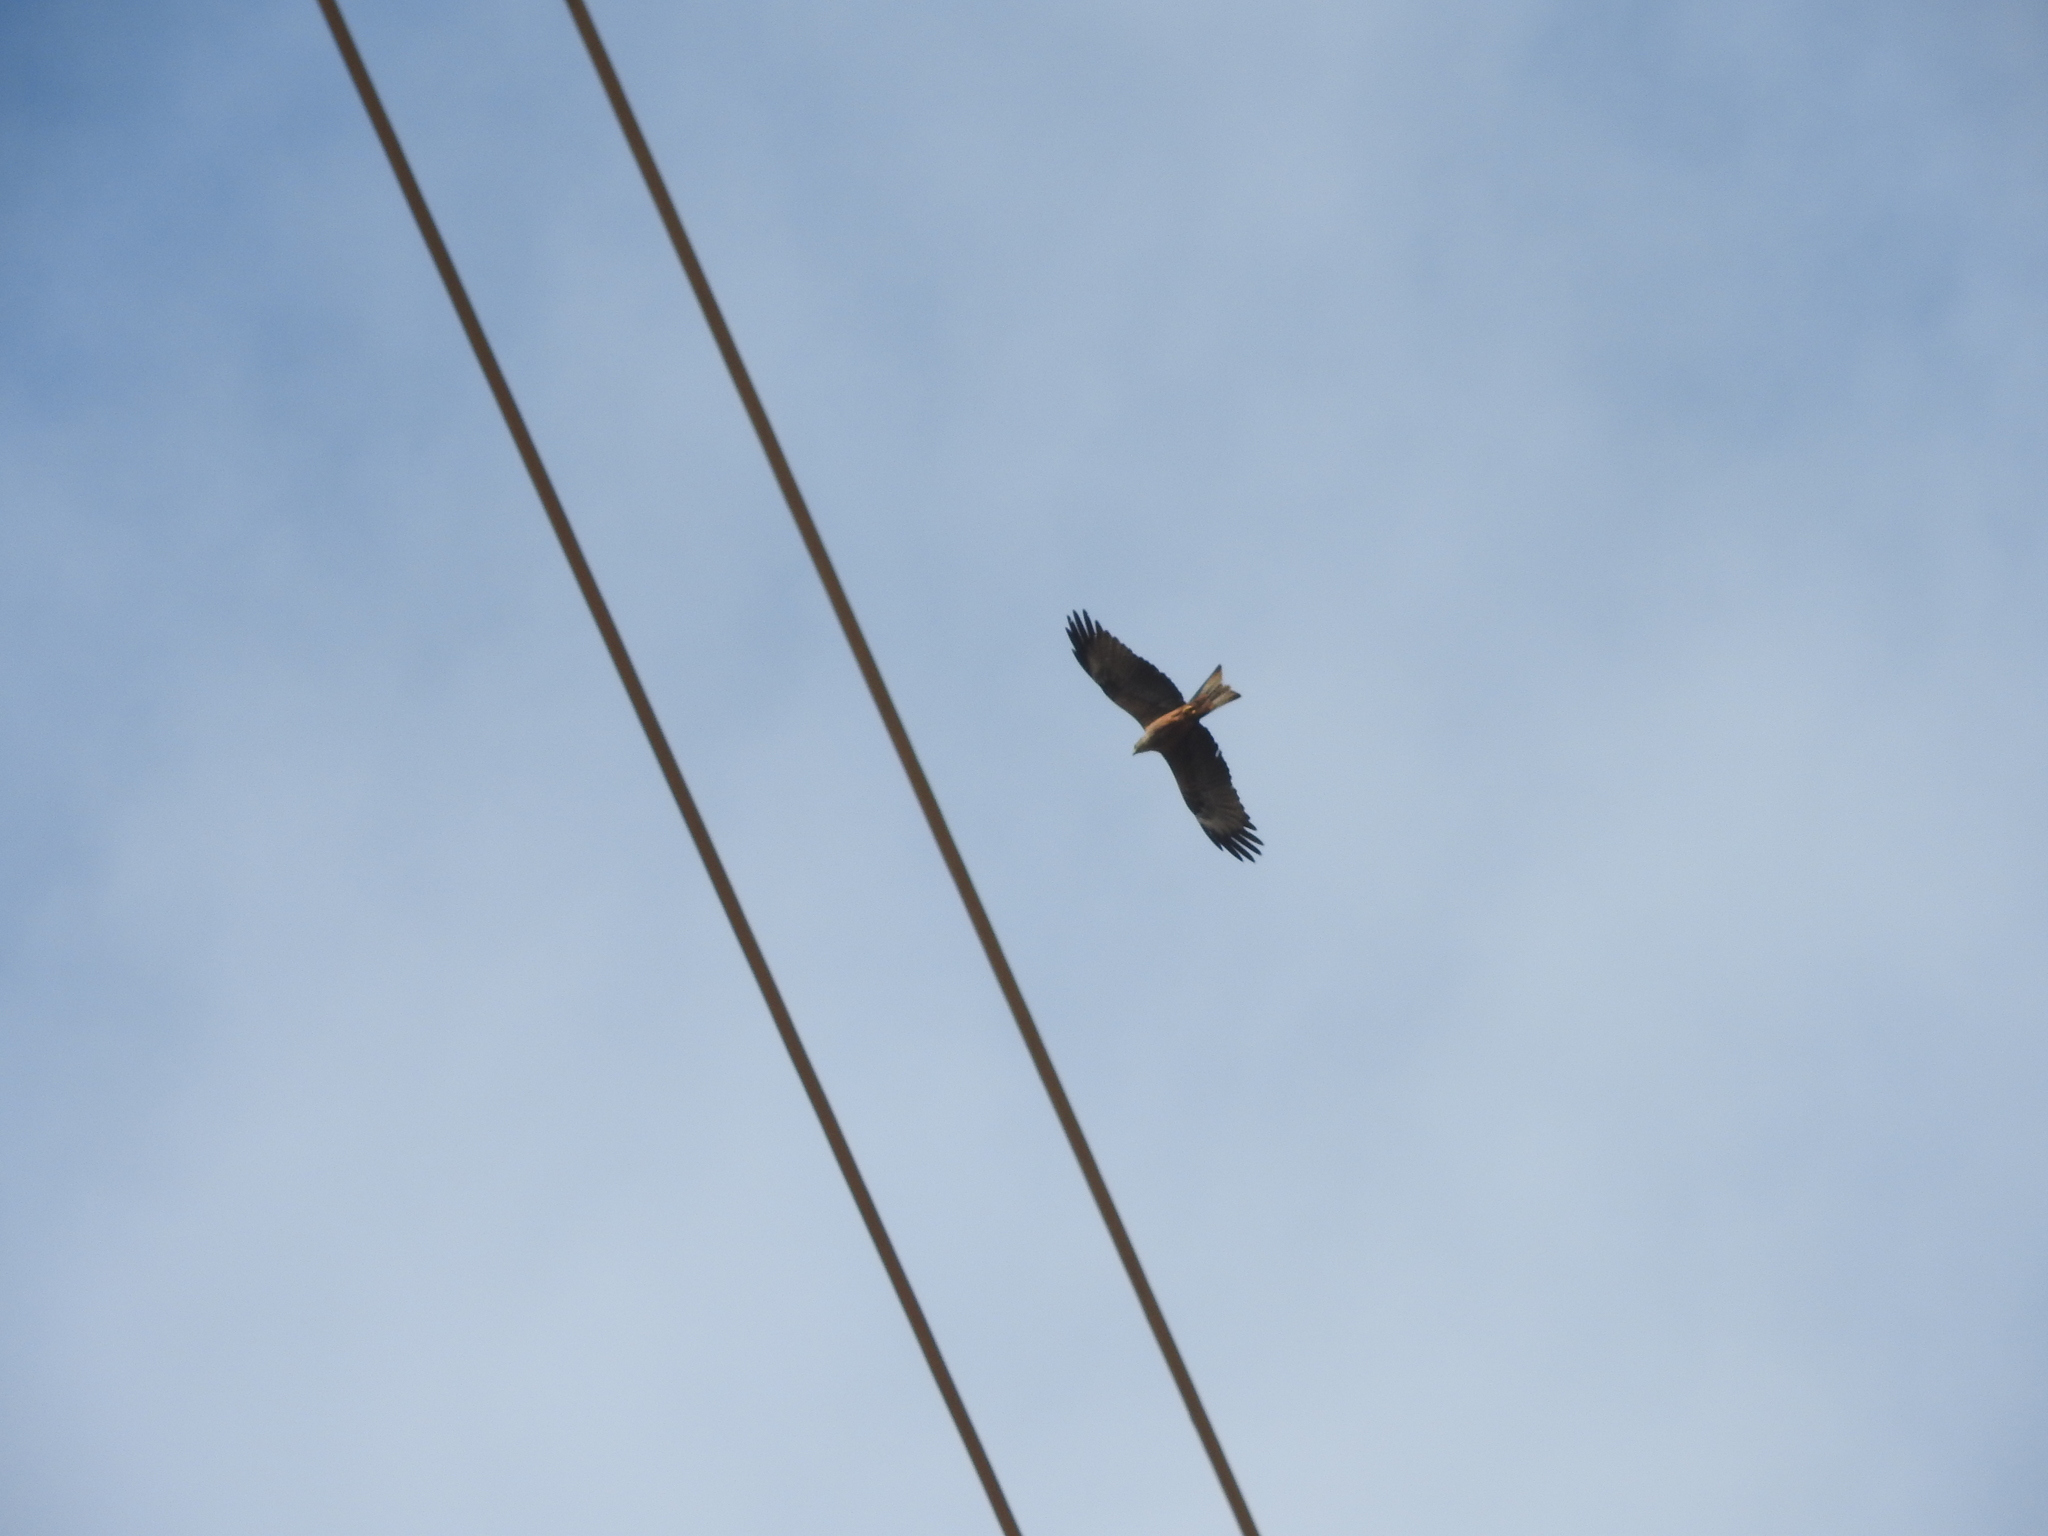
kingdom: Animalia
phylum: Chordata
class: Aves
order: Accipitriformes
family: Accipitridae
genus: Milvus
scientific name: Milvus migrans
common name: Black kite
